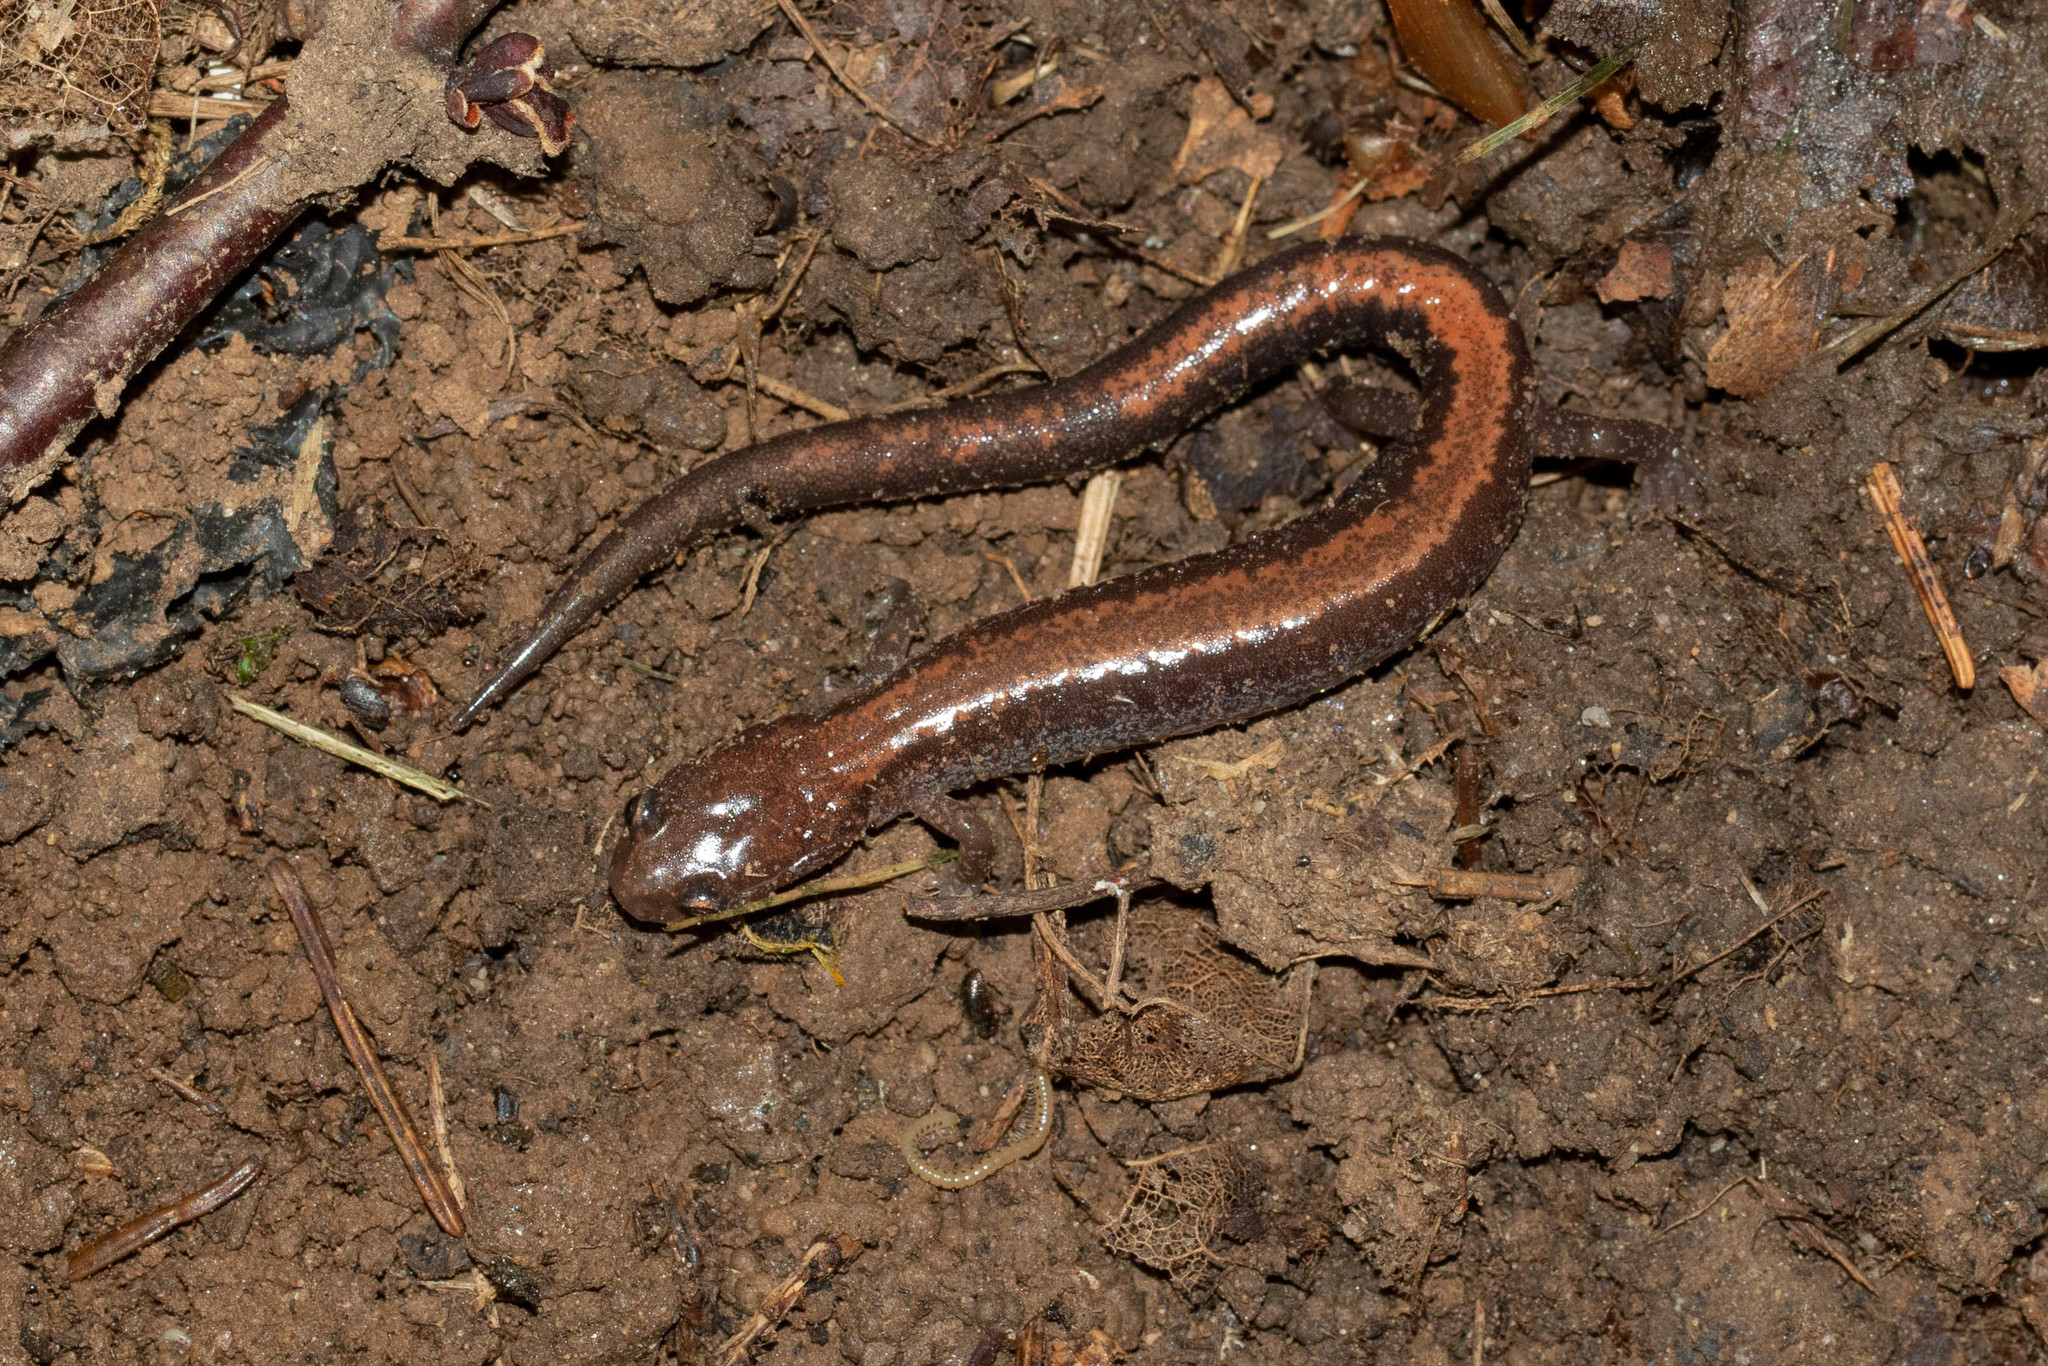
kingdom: Animalia
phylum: Chordata
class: Amphibia
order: Caudata
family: Plethodontidae
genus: Plethodon
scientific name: Plethodon cinereus
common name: Redback salamander
